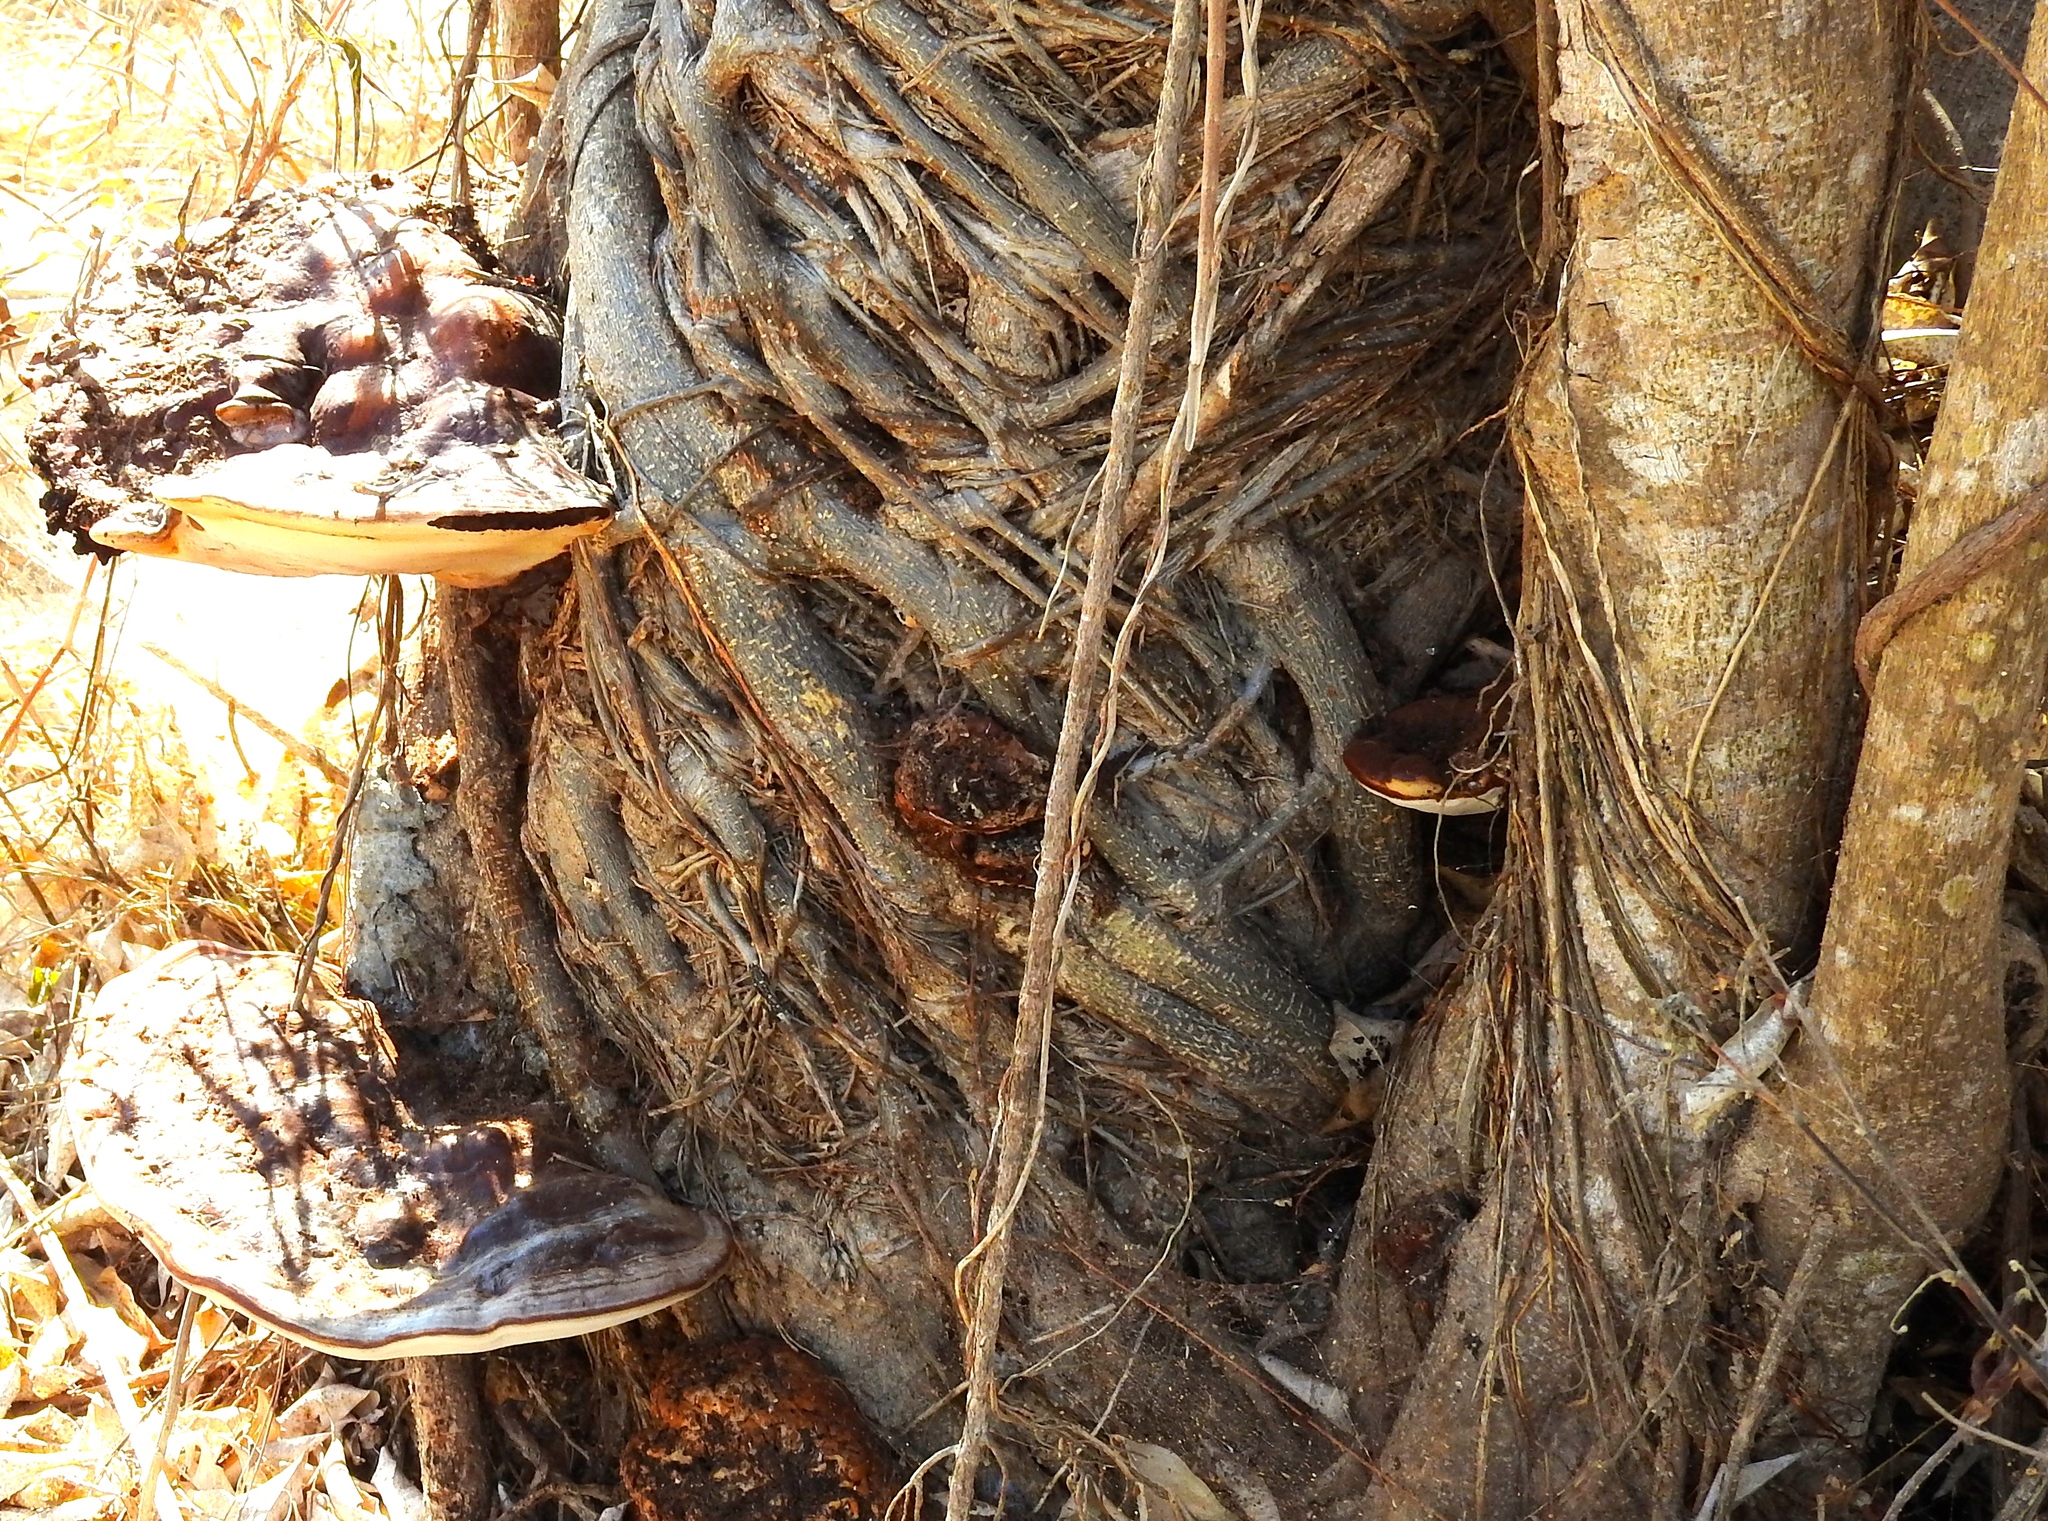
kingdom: Fungi
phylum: Basidiomycota
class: Agaricomycetes
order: Polyporales
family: Polyporaceae
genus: Ganoderma
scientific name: Ganoderma resinaceum
